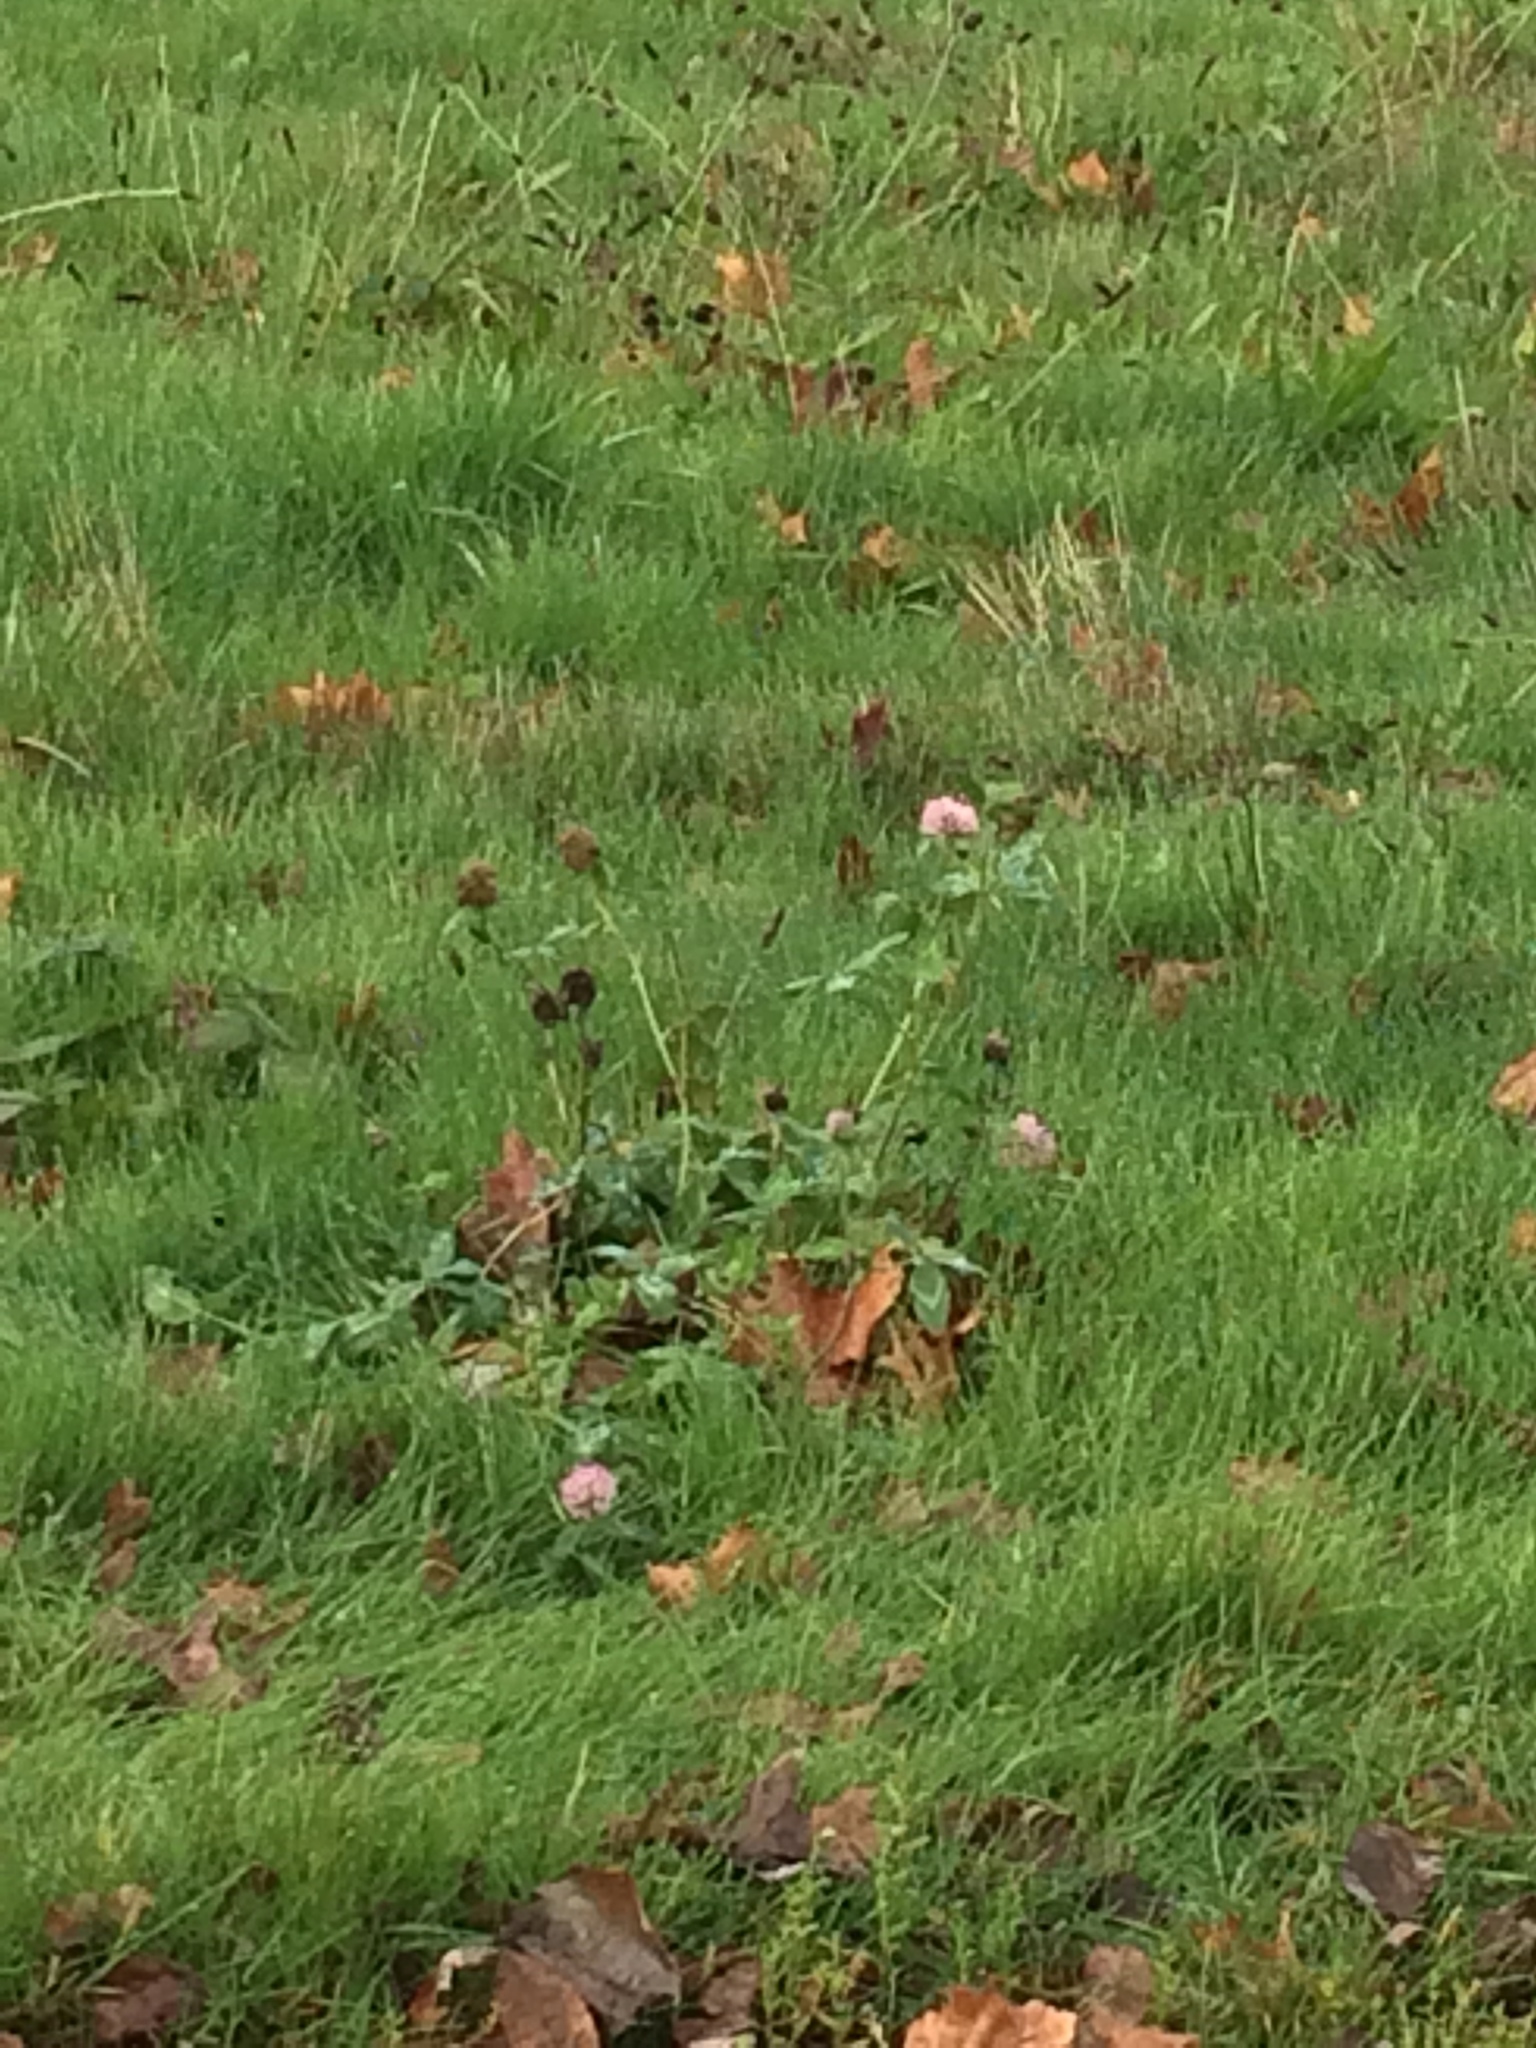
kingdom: Plantae
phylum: Tracheophyta
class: Magnoliopsida
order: Fabales
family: Fabaceae
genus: Trifolium
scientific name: Trifolium pratense
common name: Red clover
